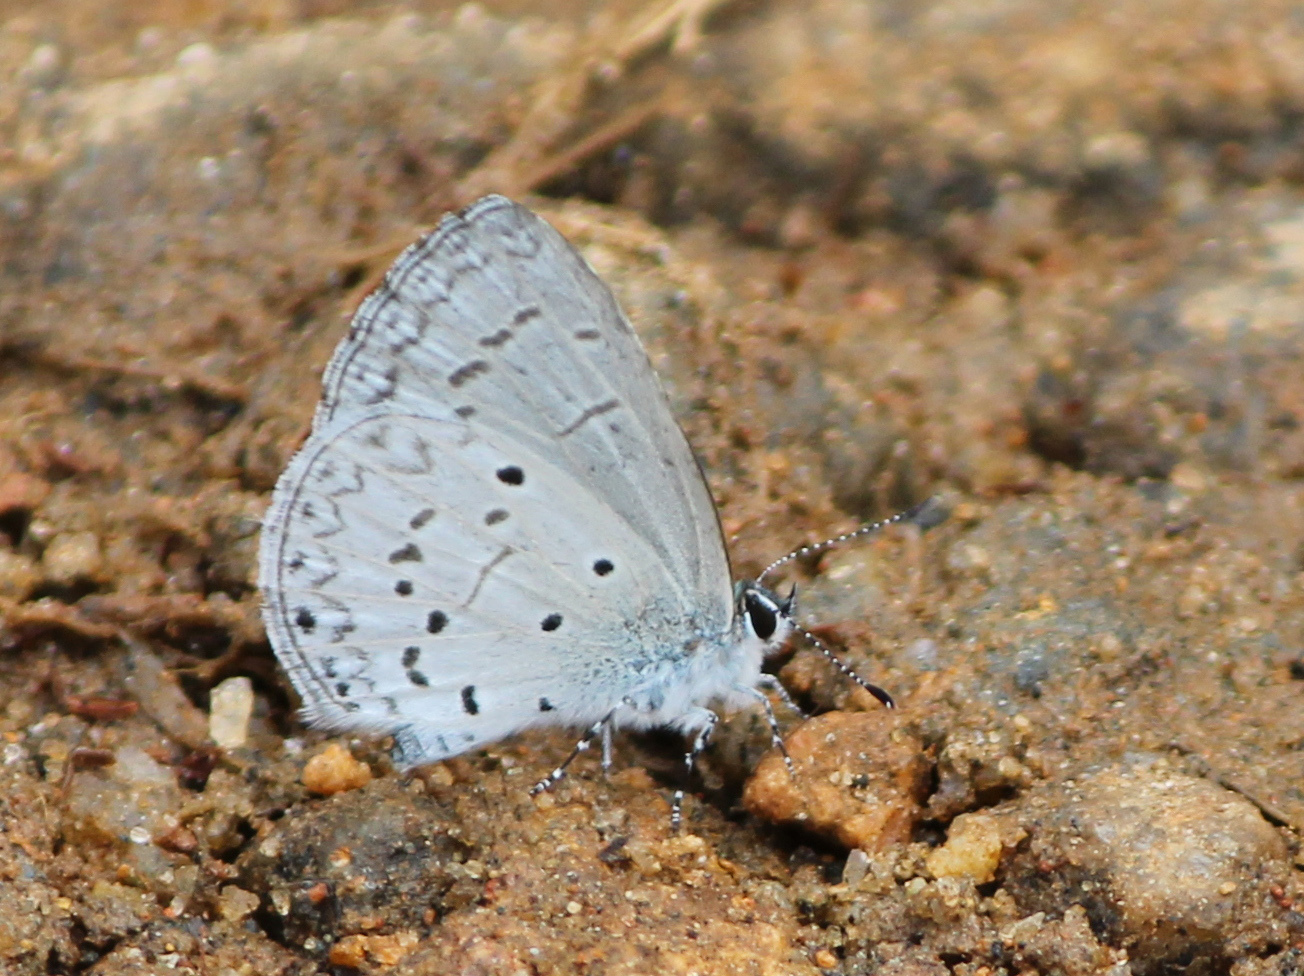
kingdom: Animalia
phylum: Arthropoda
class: Insecta
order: Lepidoptera
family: Lycaenidae
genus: Celastrina
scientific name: Celastrina lavendularis
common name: Plain hedge blue
